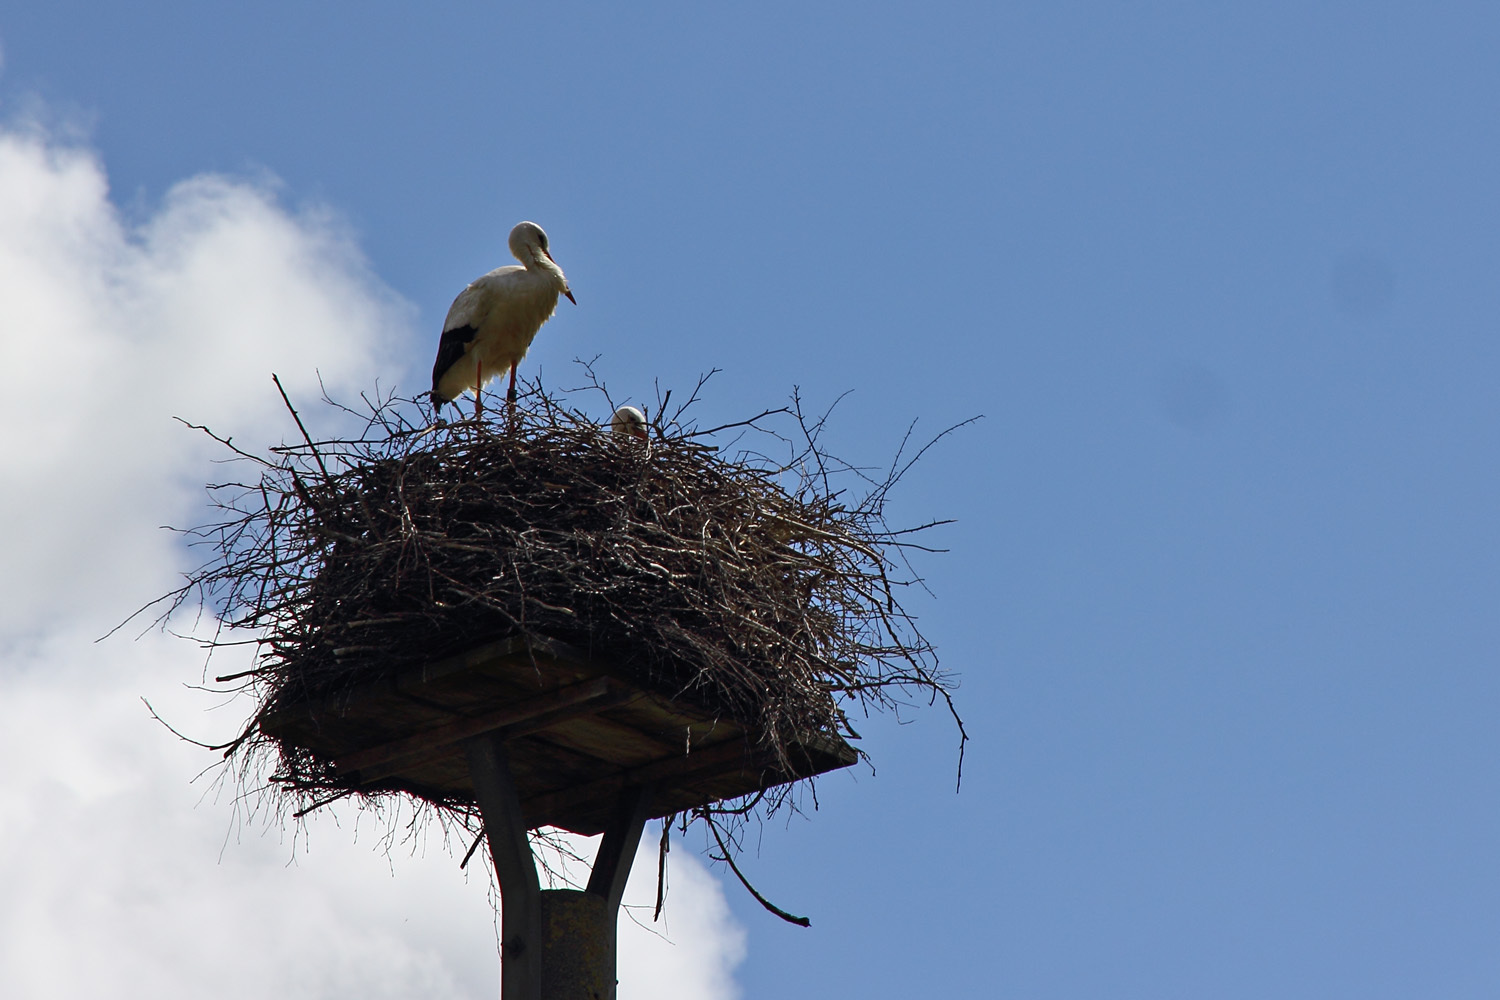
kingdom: Animalia
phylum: Chordata
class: Aves
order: Ciconiiformes
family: Ciconiidae
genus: Ciconia
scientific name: Ciconia ciconia
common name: White stork
